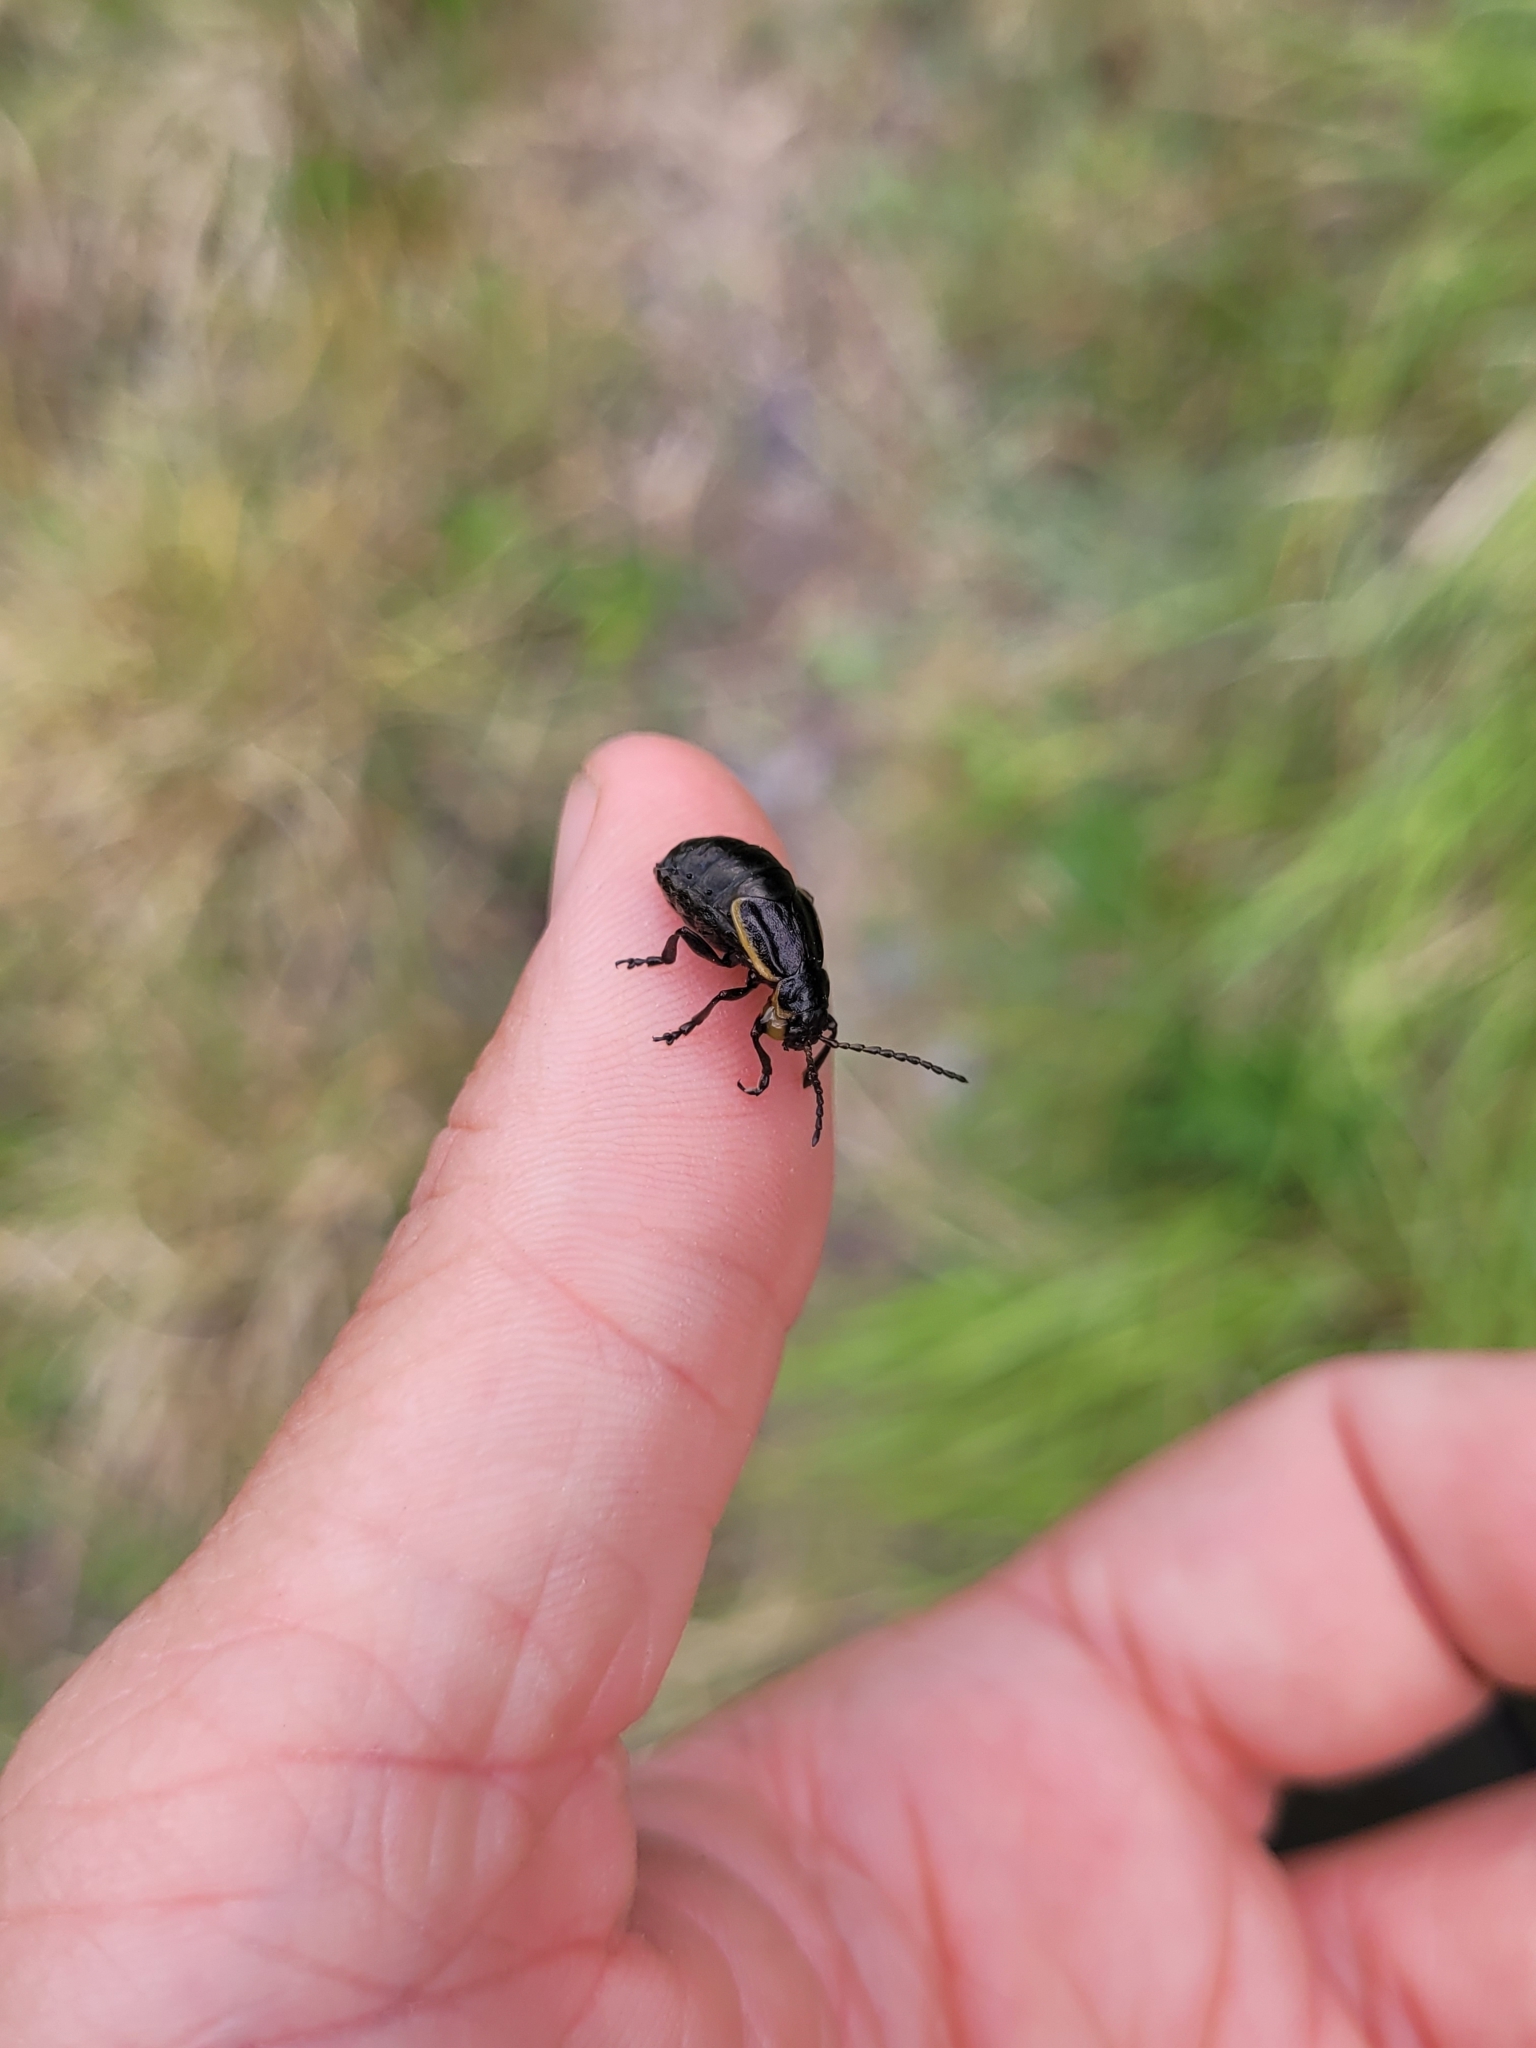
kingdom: Animalia
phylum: Arthropoda
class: Insecta
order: Coleoptera
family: Chrysomelidae
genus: Arima
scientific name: Arima marginata
